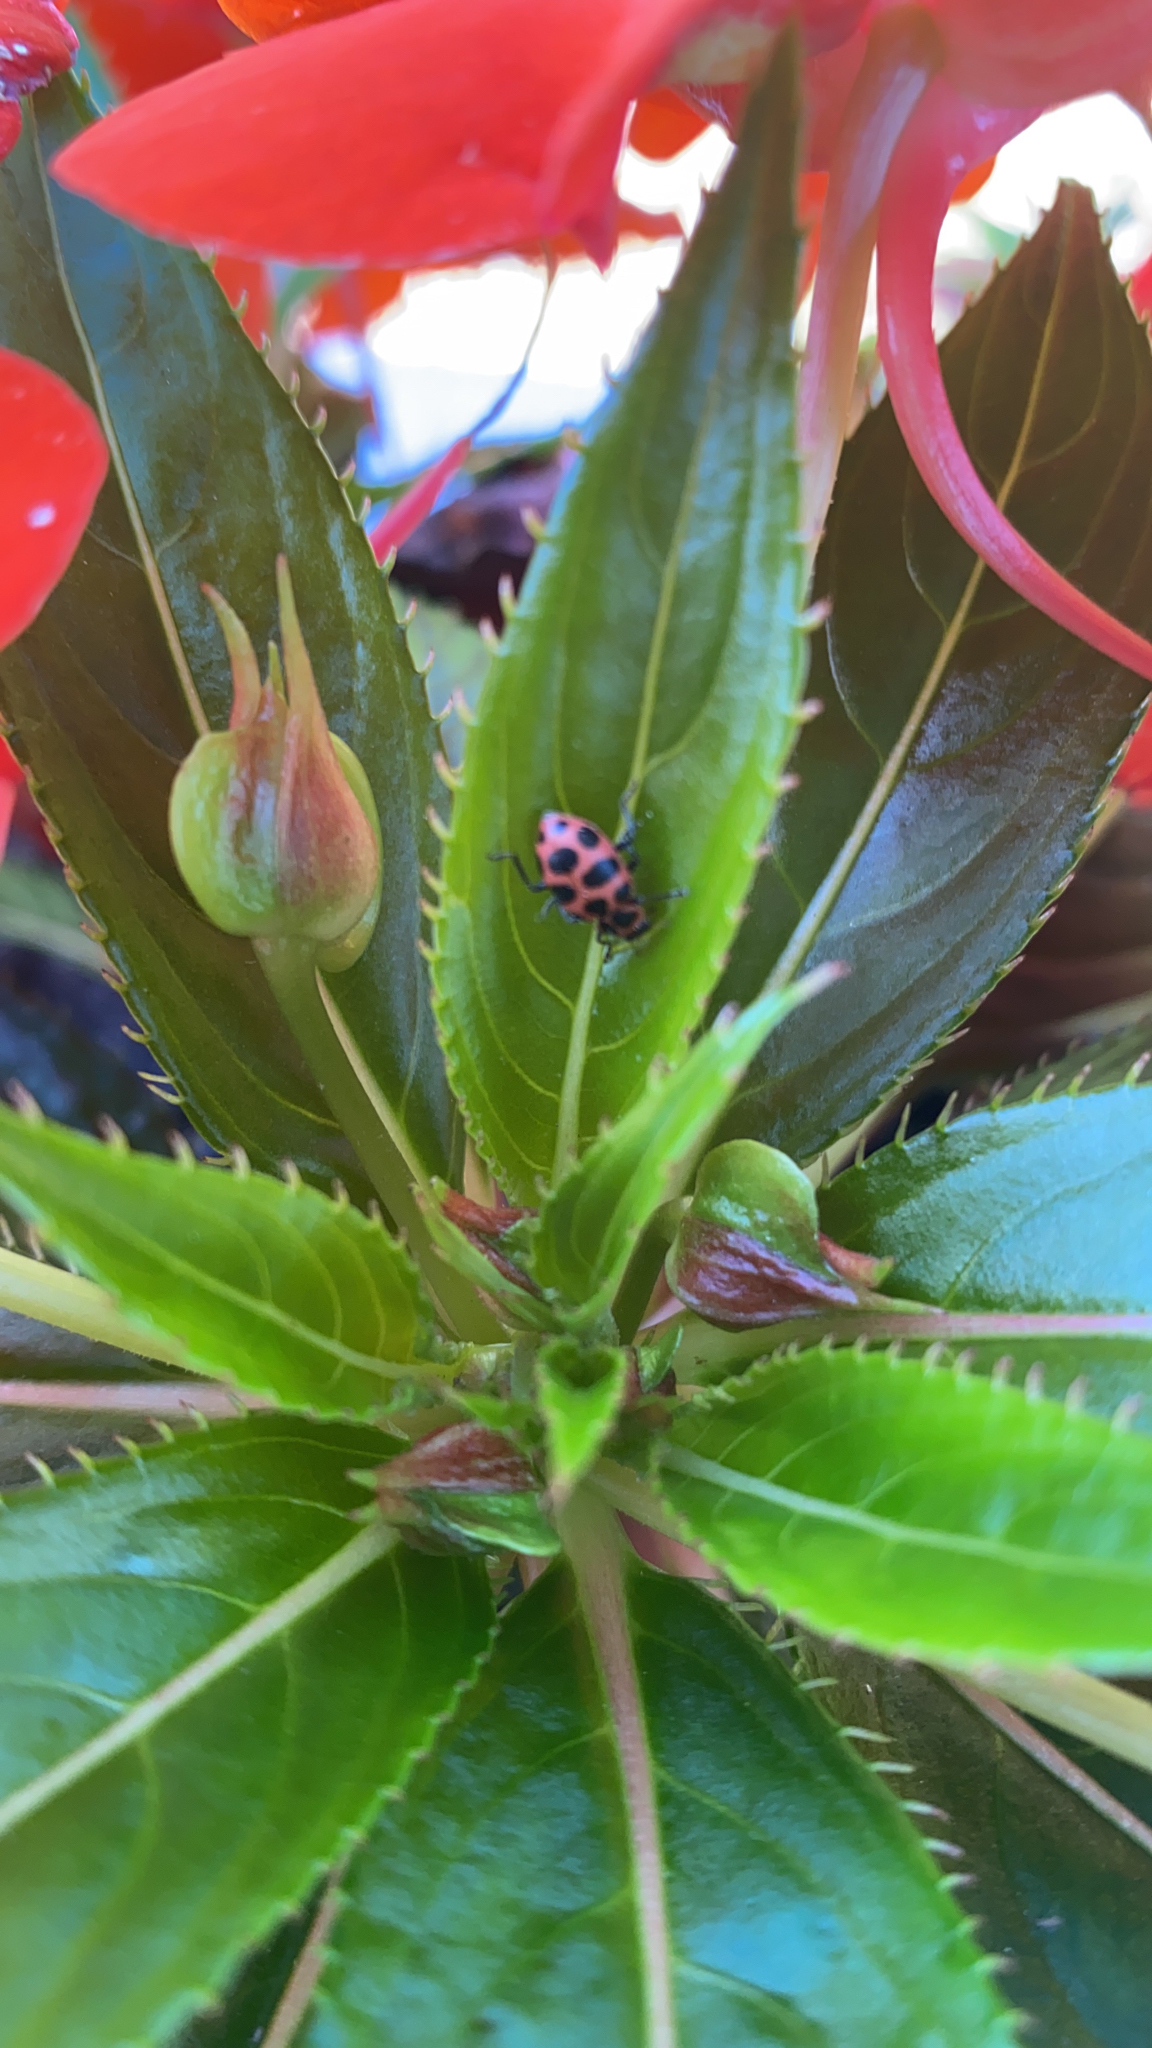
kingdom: Animalia
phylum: Arthropoda
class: Insecta
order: Coleoptera
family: Coccinellidae
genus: Coleomegilla
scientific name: Coleomegilla maculata
